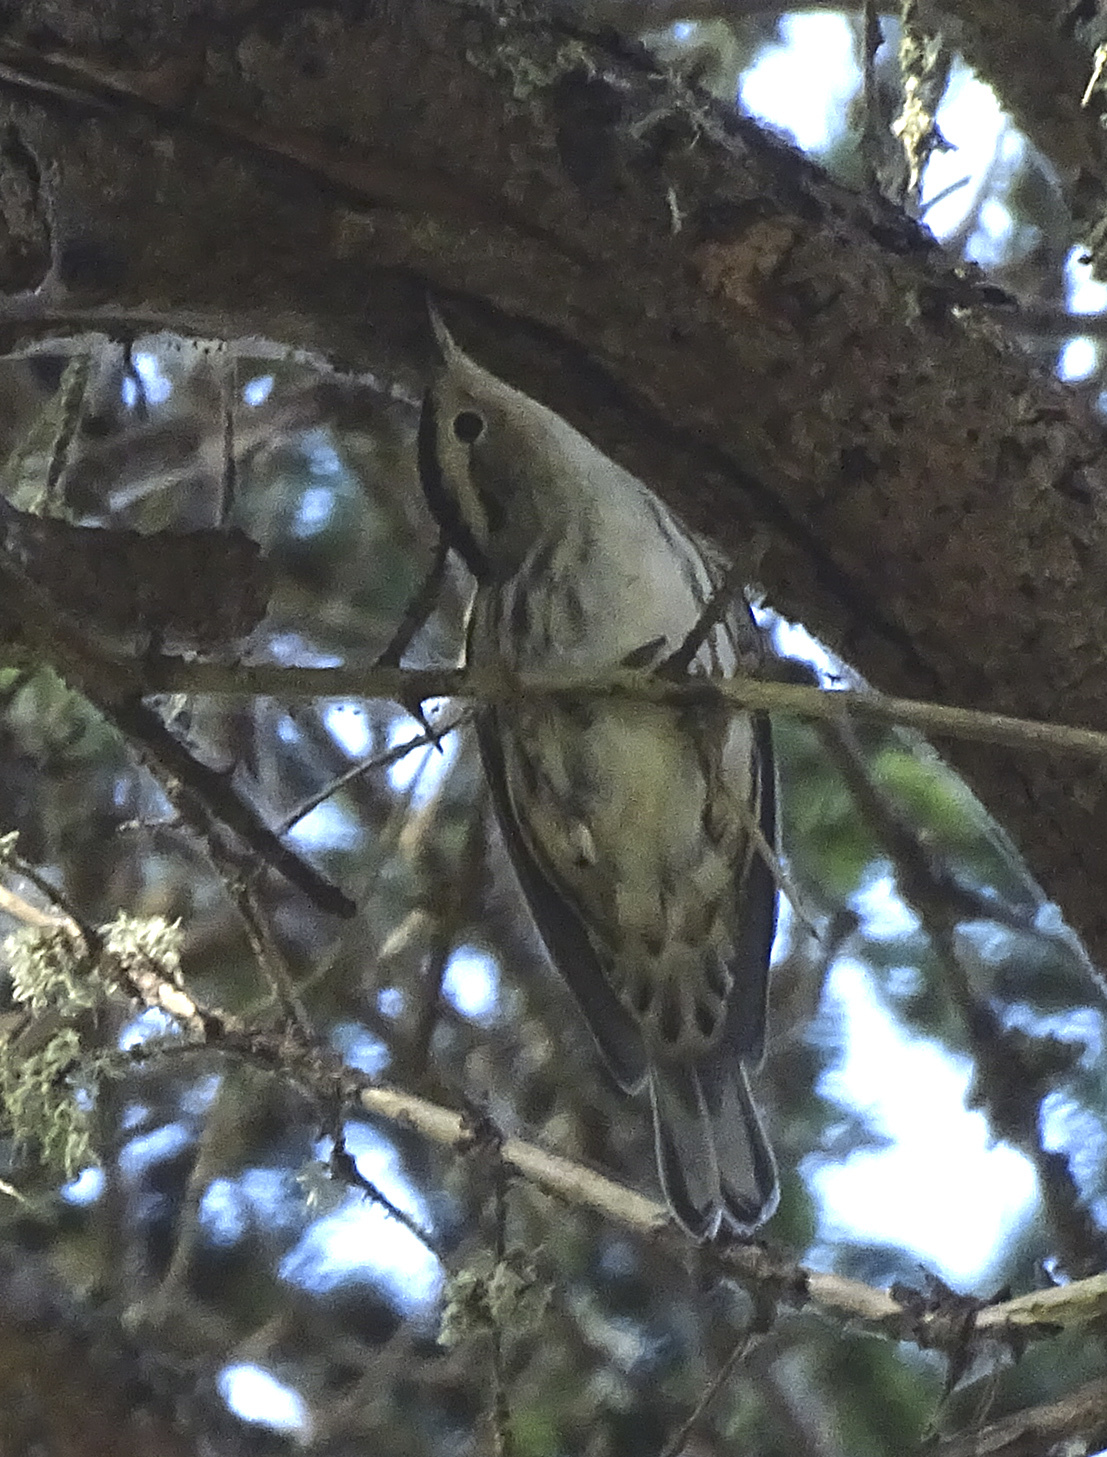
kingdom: Animalia
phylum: Chordata
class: Aves
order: Passeriformes
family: Parulidae
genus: Mniotilta
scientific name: Mniotilta varia
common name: Black-and-white warbler
